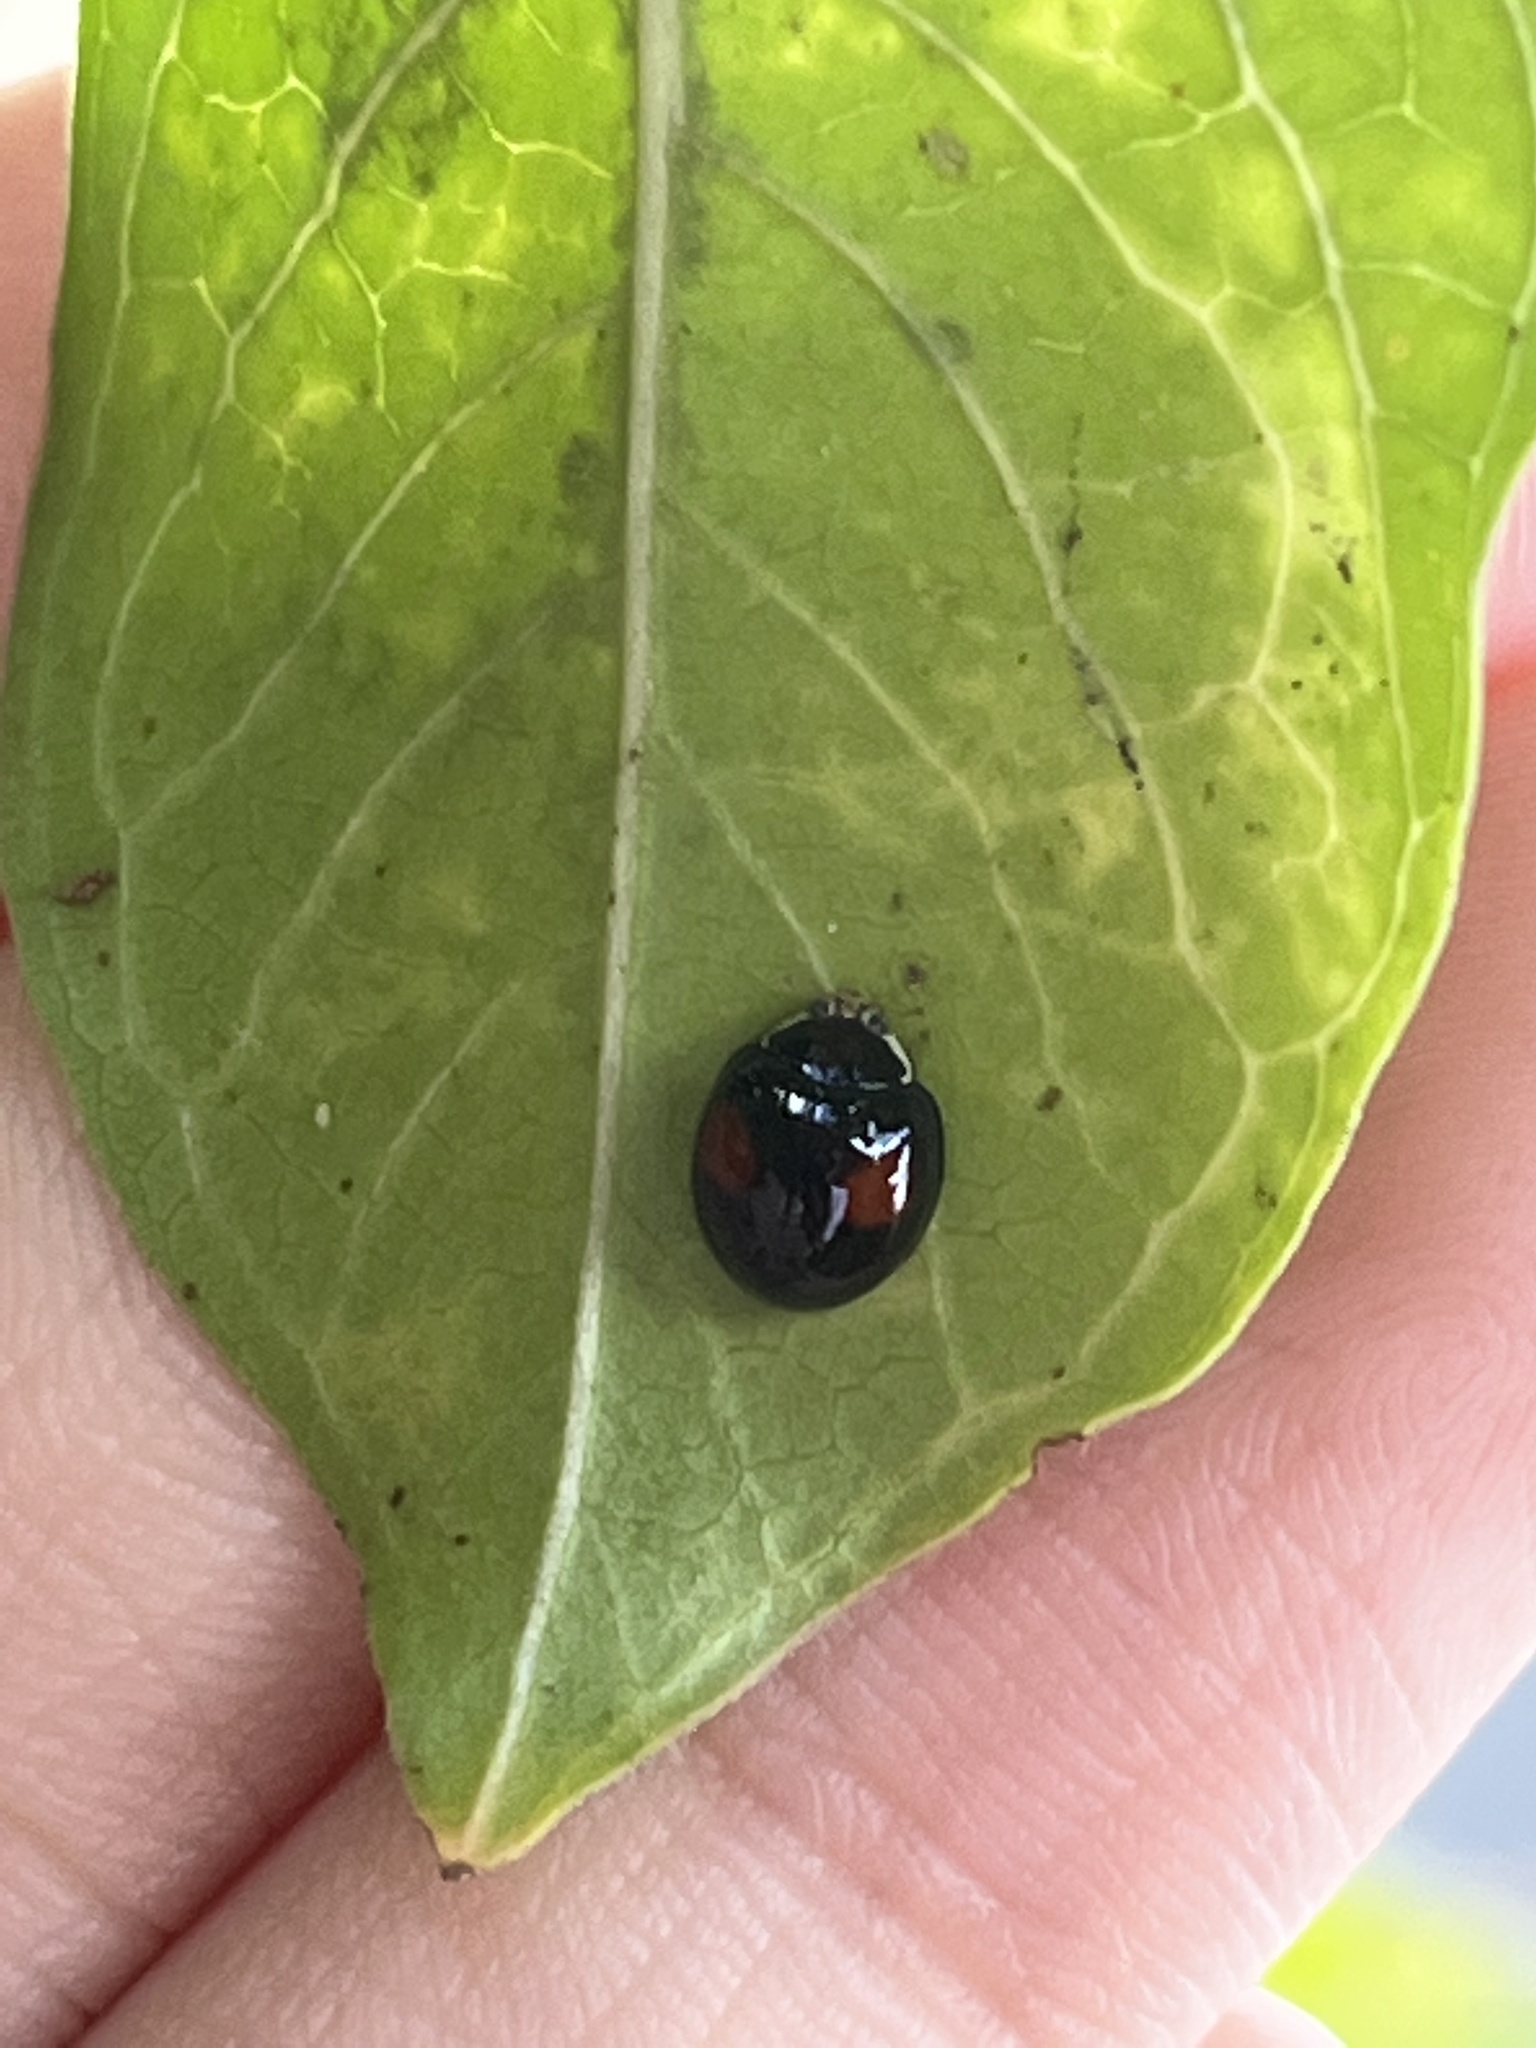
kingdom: Animalia
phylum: Arthropoda
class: Insecta
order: Coleoptera
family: Coccinellidae
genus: Olla
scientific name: Olla v-nigrum
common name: Ashy gray lady beetle
